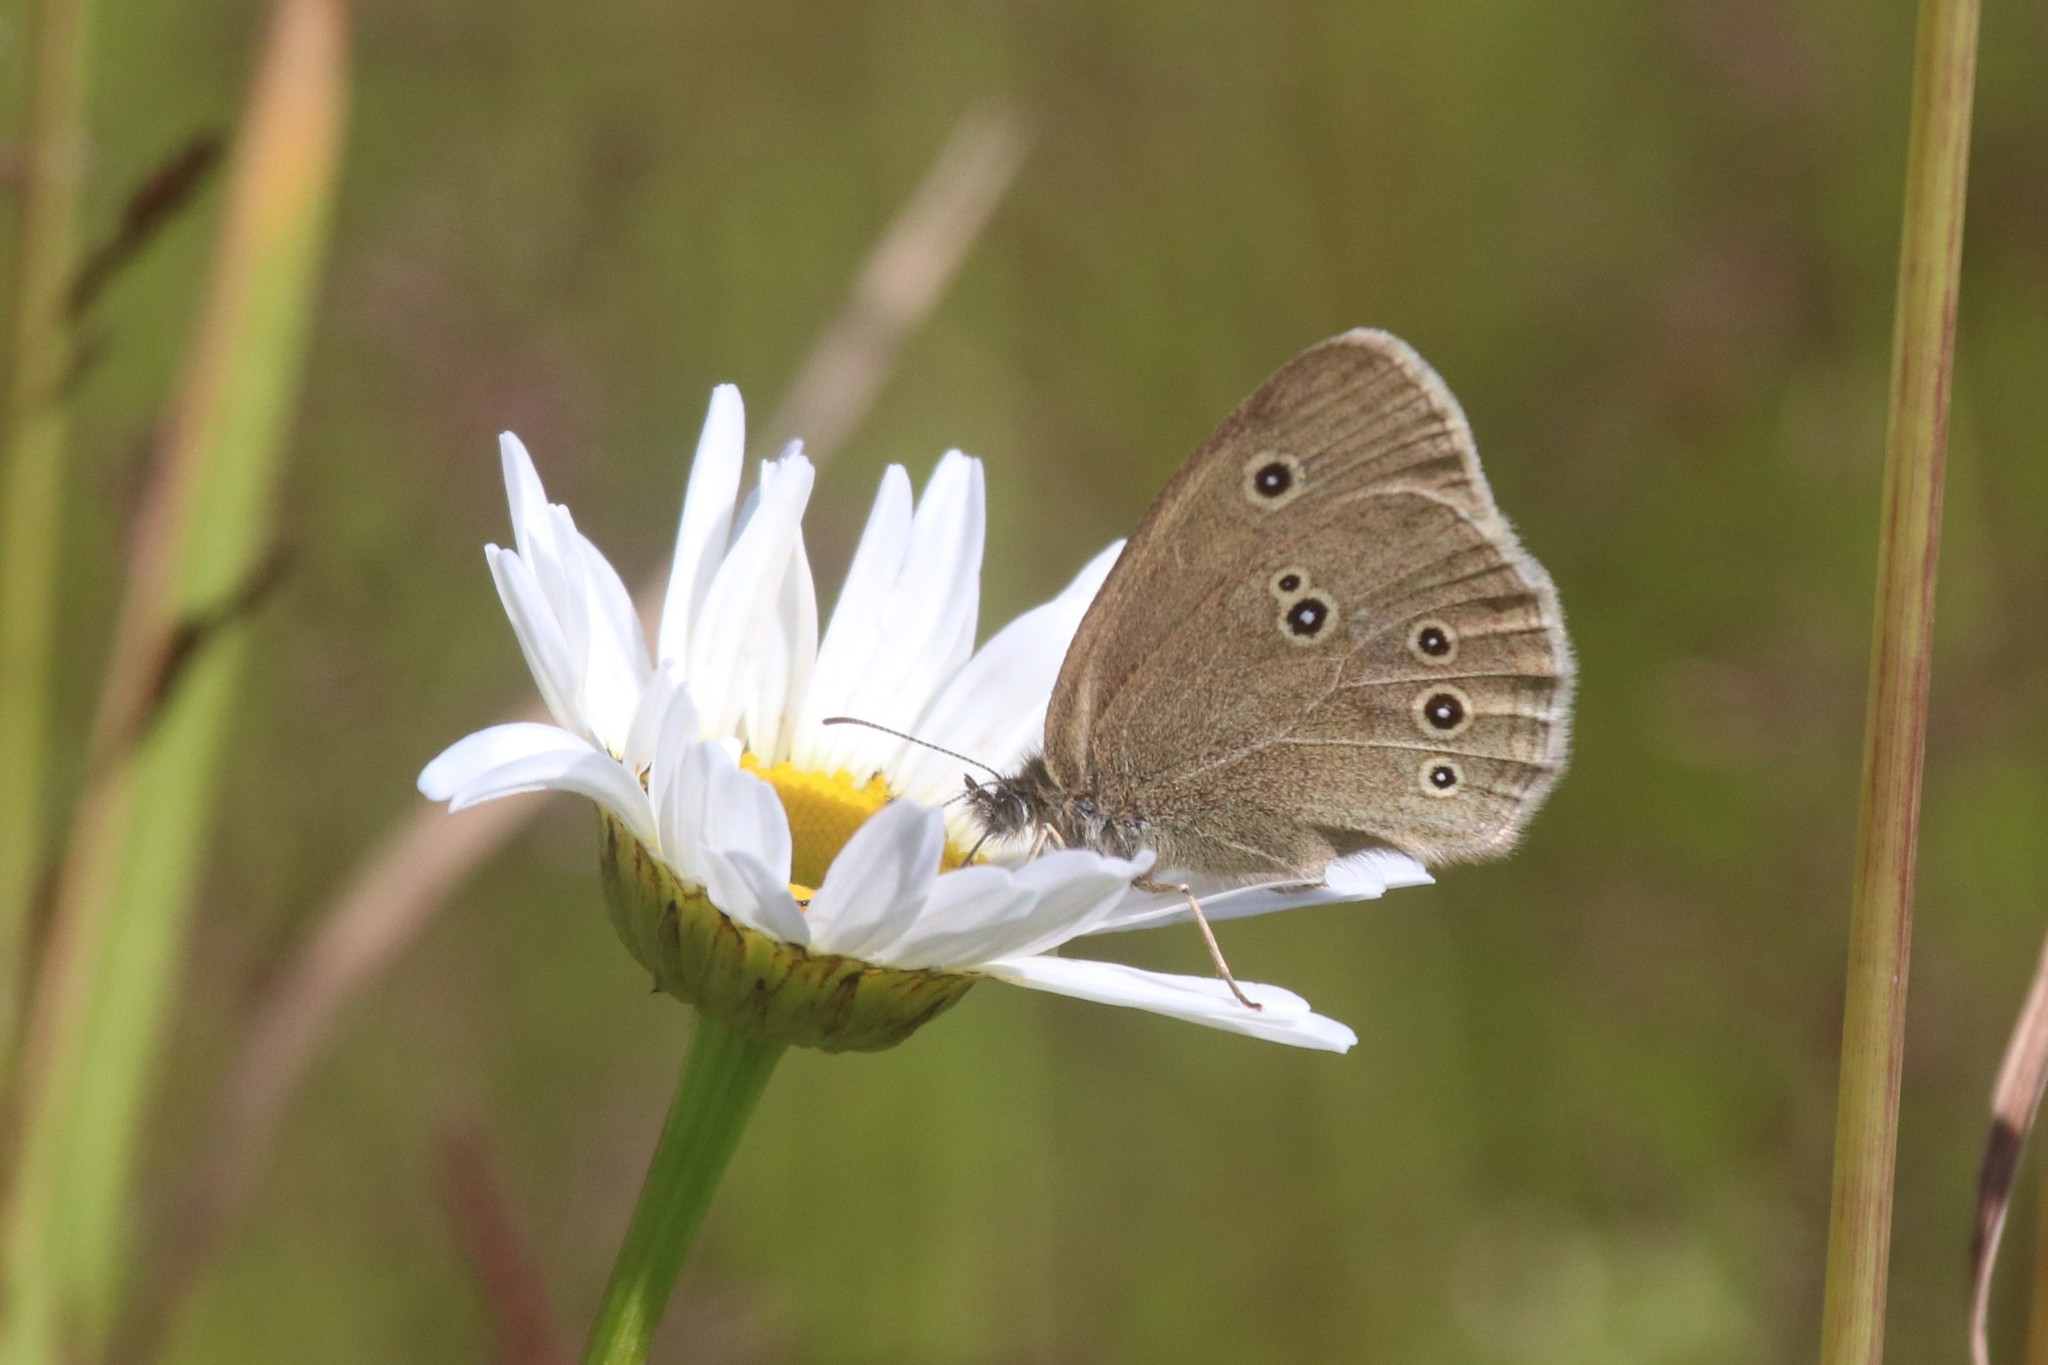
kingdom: Animalia
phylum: Arthropoda
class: Insecta
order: Lepidoptera
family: Nymphalidae
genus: Aphantopus
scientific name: Aphantopus hyperantus
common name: Ringlet
